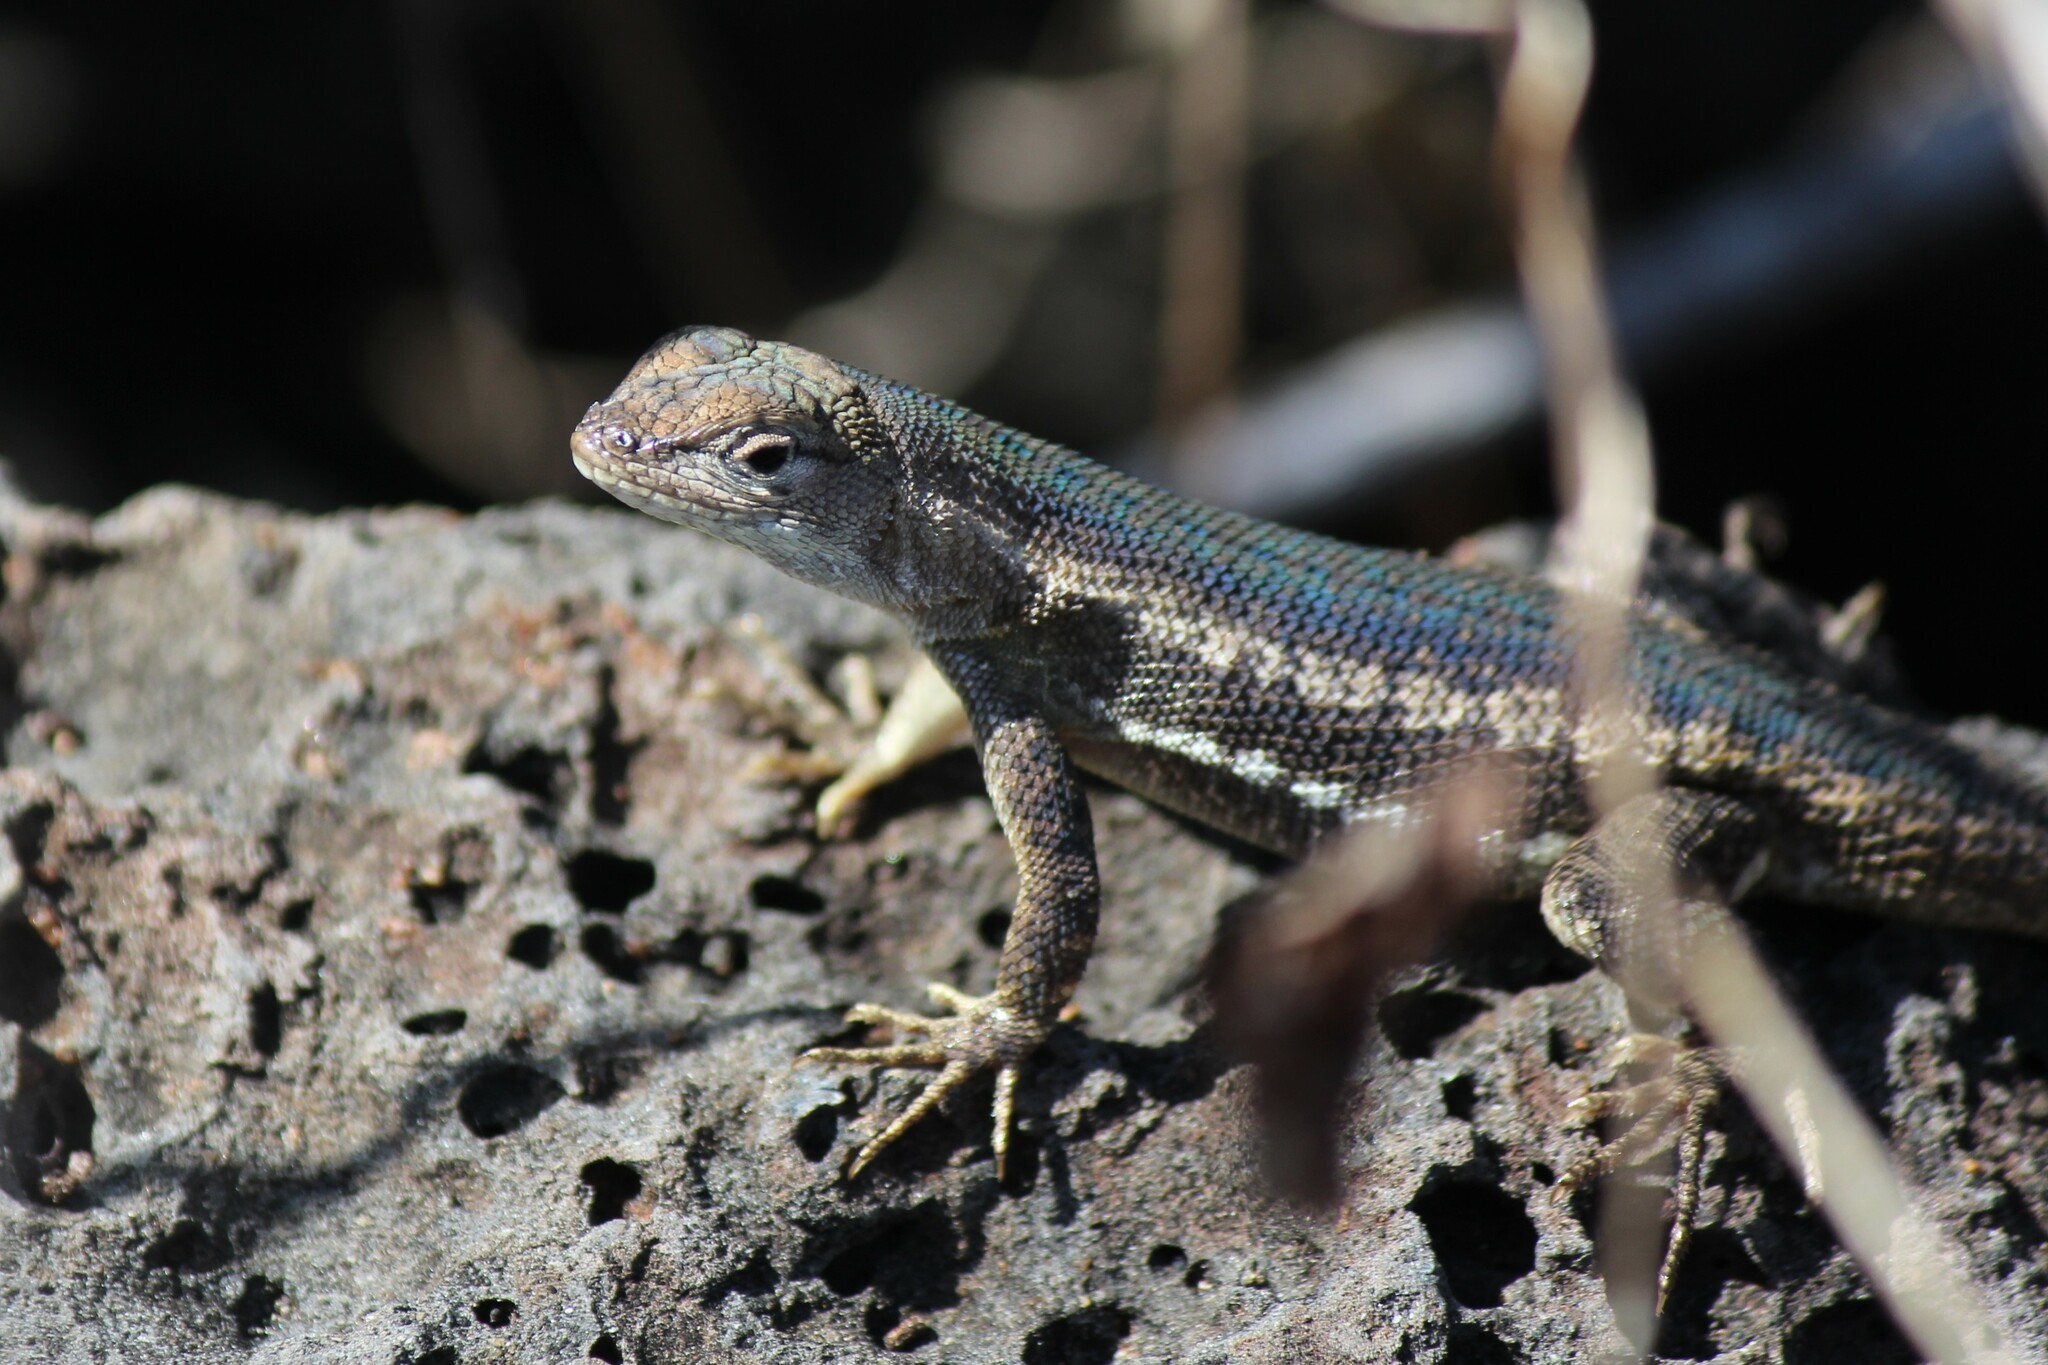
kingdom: Animalia
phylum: Chordata
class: Squamata
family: Tropiduridae
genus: Microlophus
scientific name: Microlophus bivittatus
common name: San cristobal lava lizard
